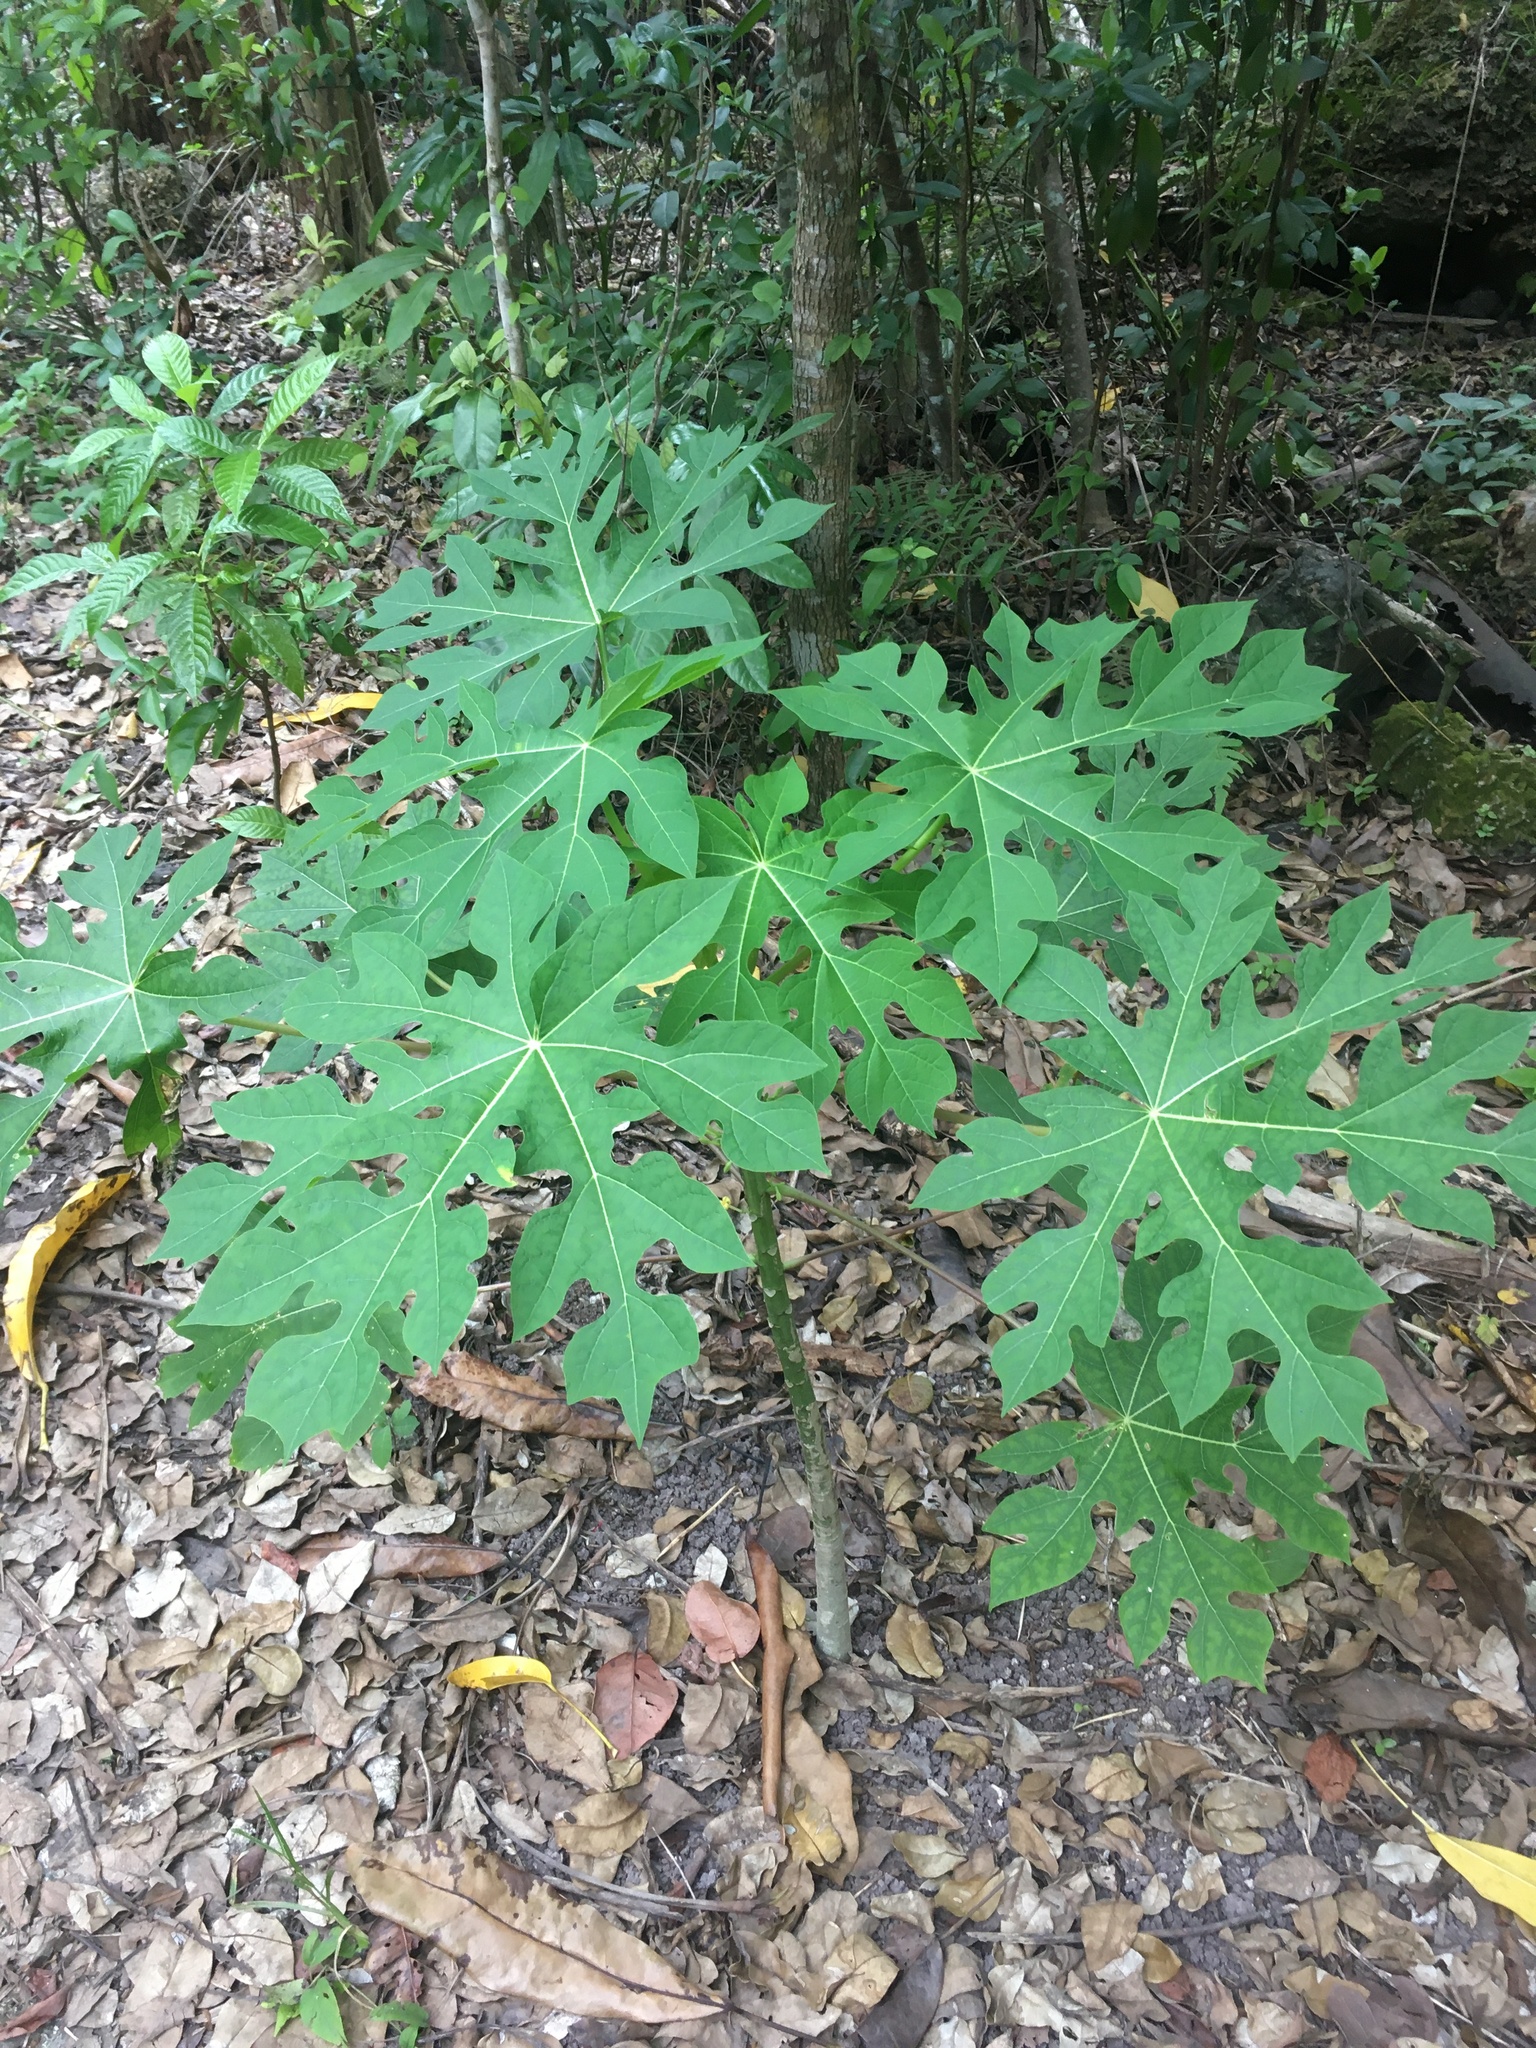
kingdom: Plantae
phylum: Tracheophyta
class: Magnoliopsida
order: Brassicales
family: Caricaceae
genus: Carica
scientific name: Carica papaya
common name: Papaya
